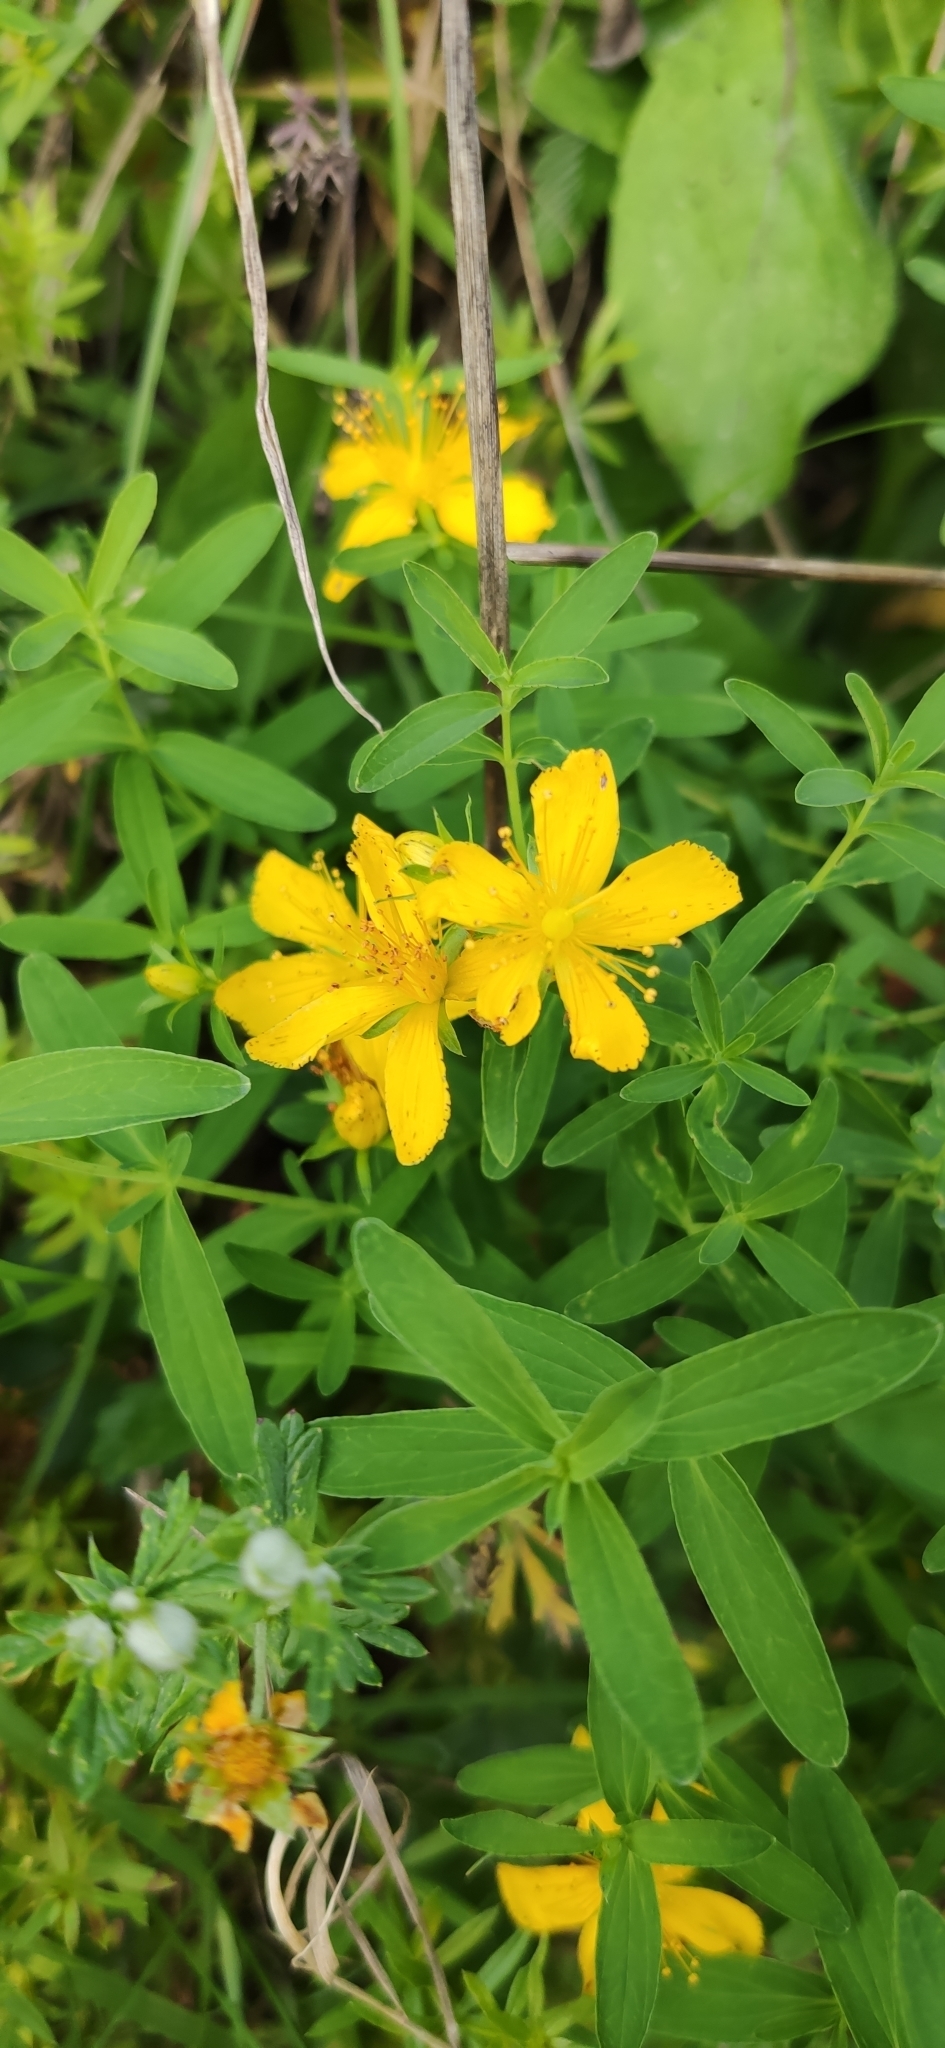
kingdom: Plantae
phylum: Tracheophyta
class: Magnoliopsida
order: Malpighiales
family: Hypericaceae
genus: Hypericum
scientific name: Hypericum perforatum
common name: Common st. johnswort
